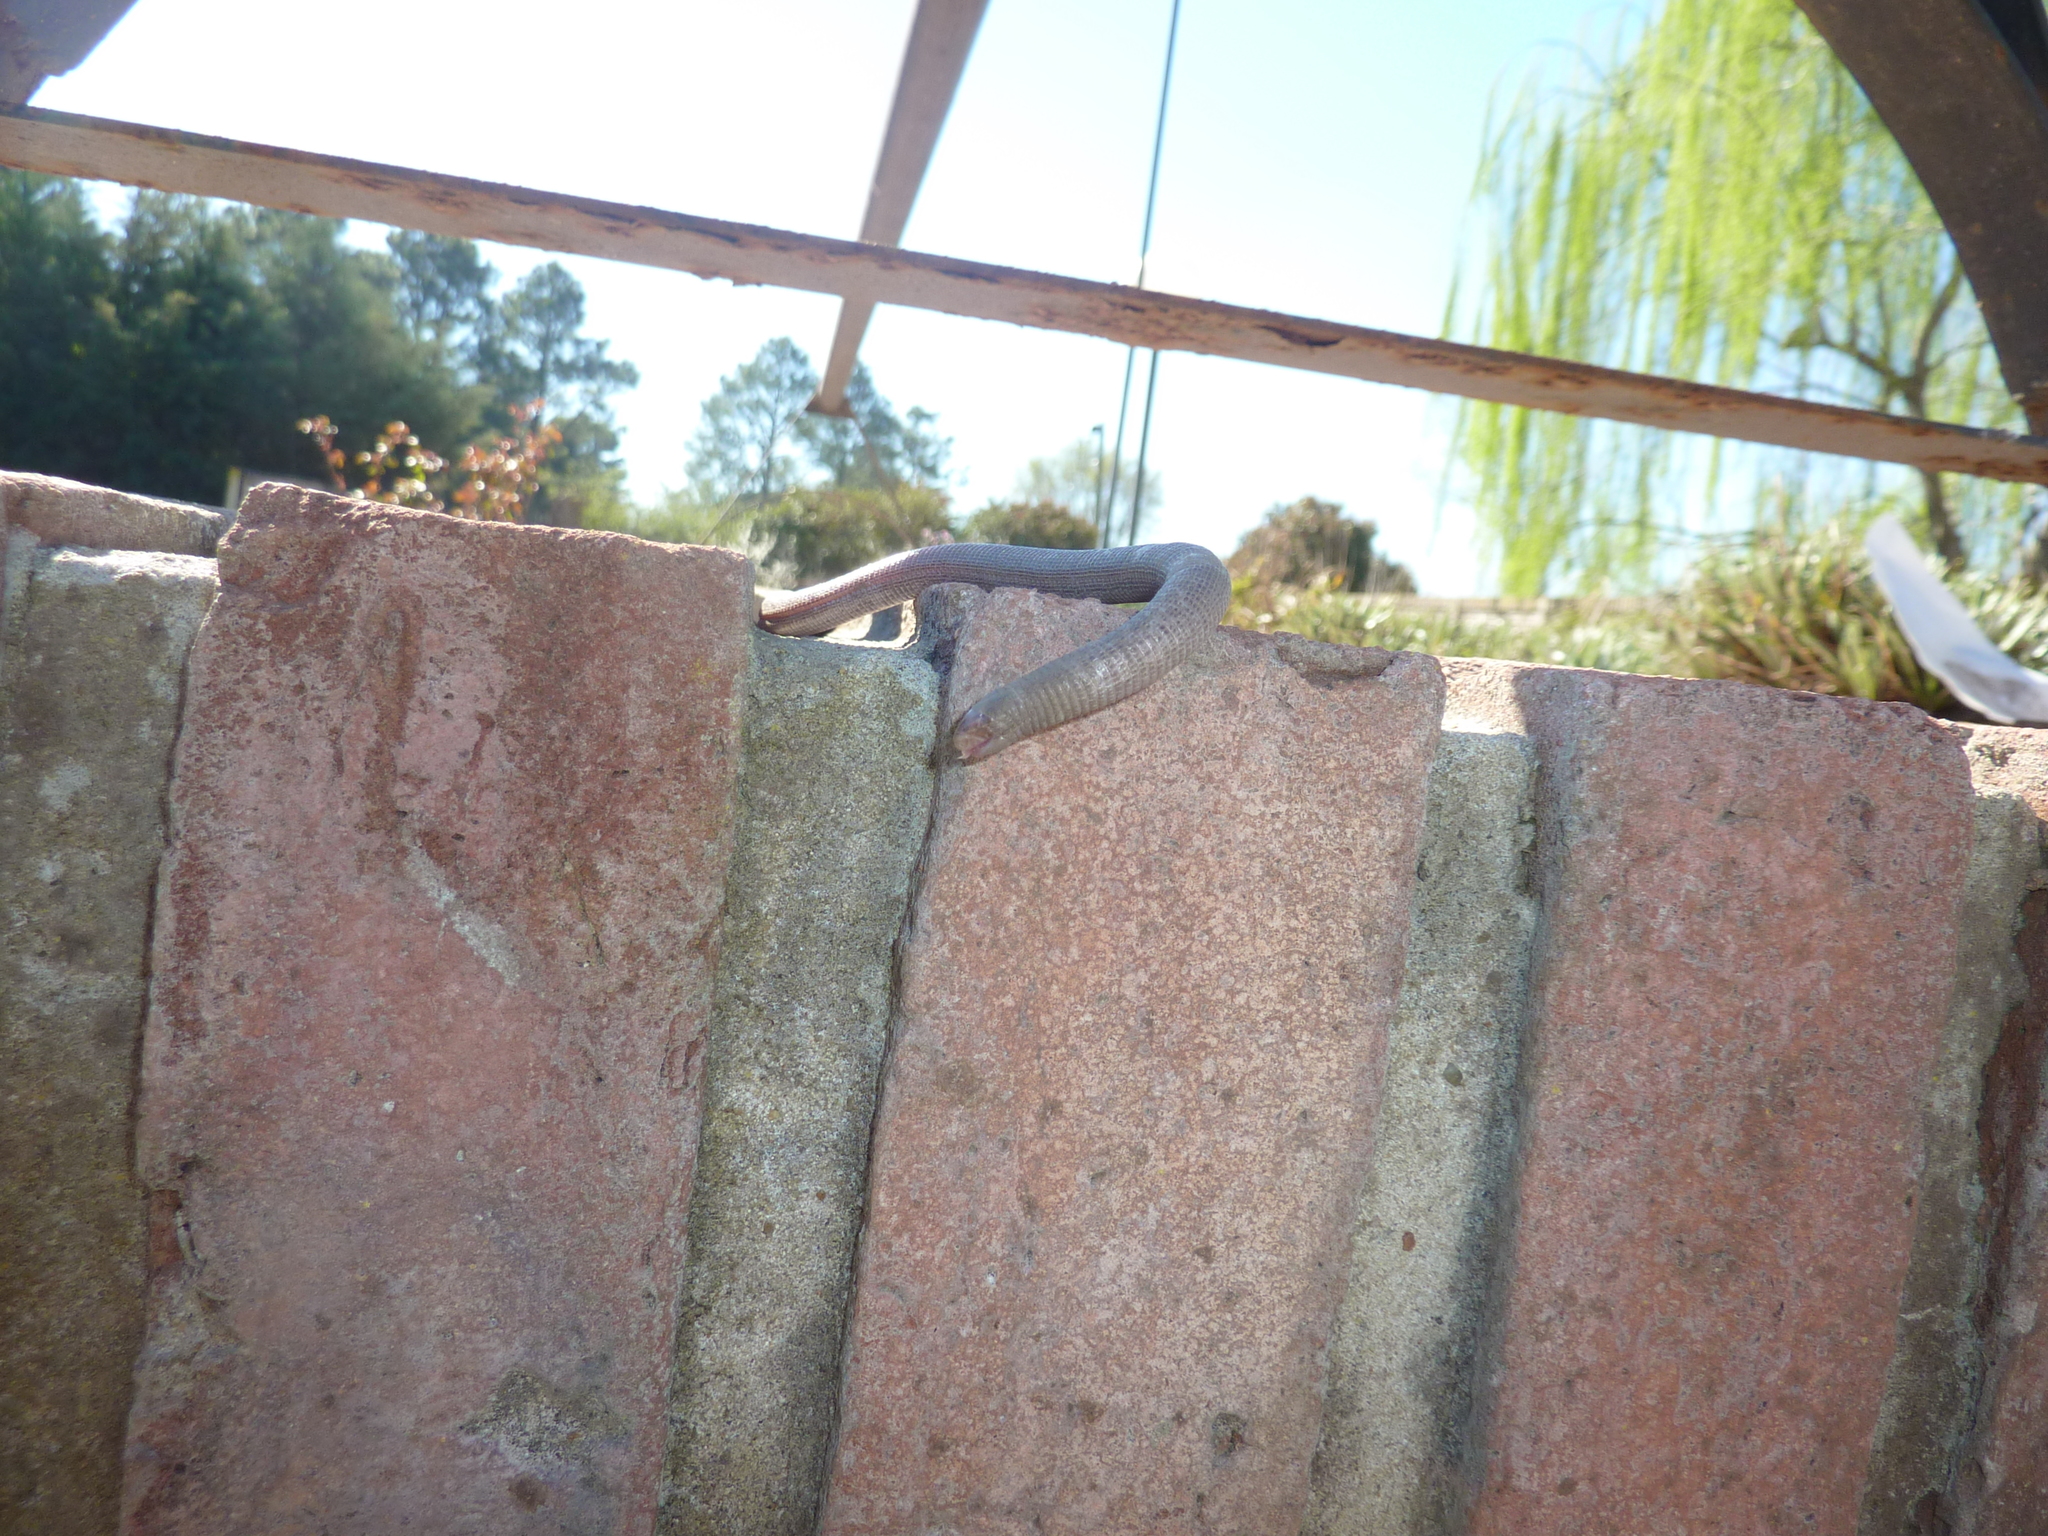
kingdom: Animalia
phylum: Chordata
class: Squamata
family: Amphisbaenidae
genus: Amphisbaena
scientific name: Amphisbaena darwinii
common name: Darwin's ringed worm lizard
